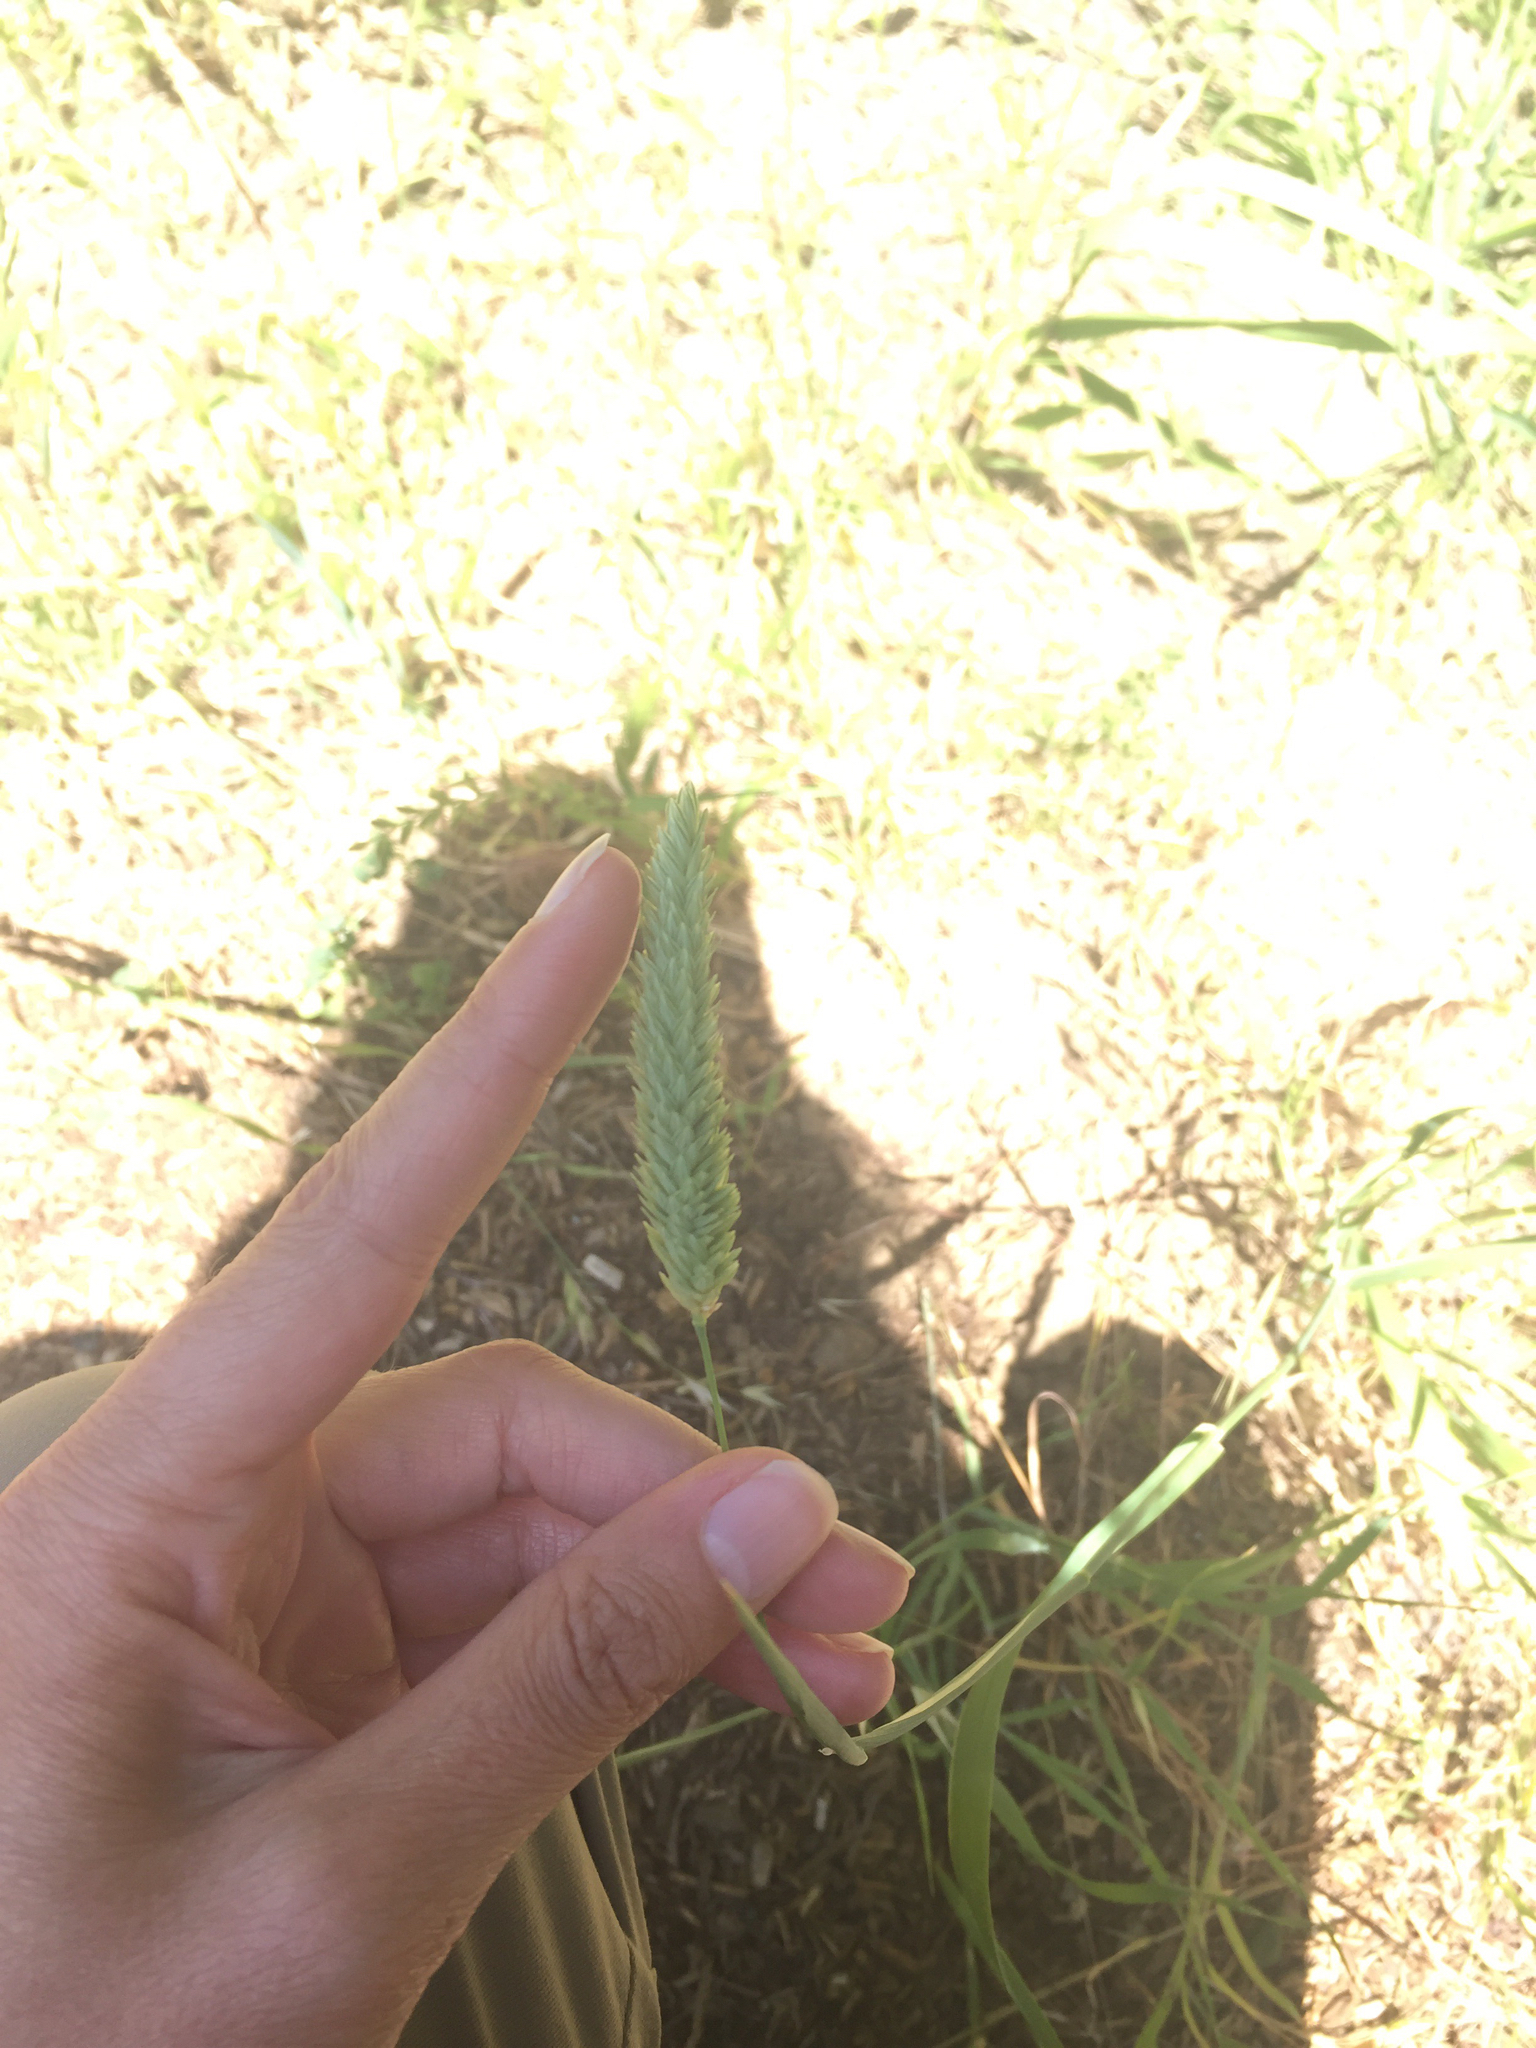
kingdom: Plantae
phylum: Tracheophyta
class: Liliopsida
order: Poales
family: Poaceae
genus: Phalaris
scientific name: Phalaris aquatica
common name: Bulbous canary-grass
